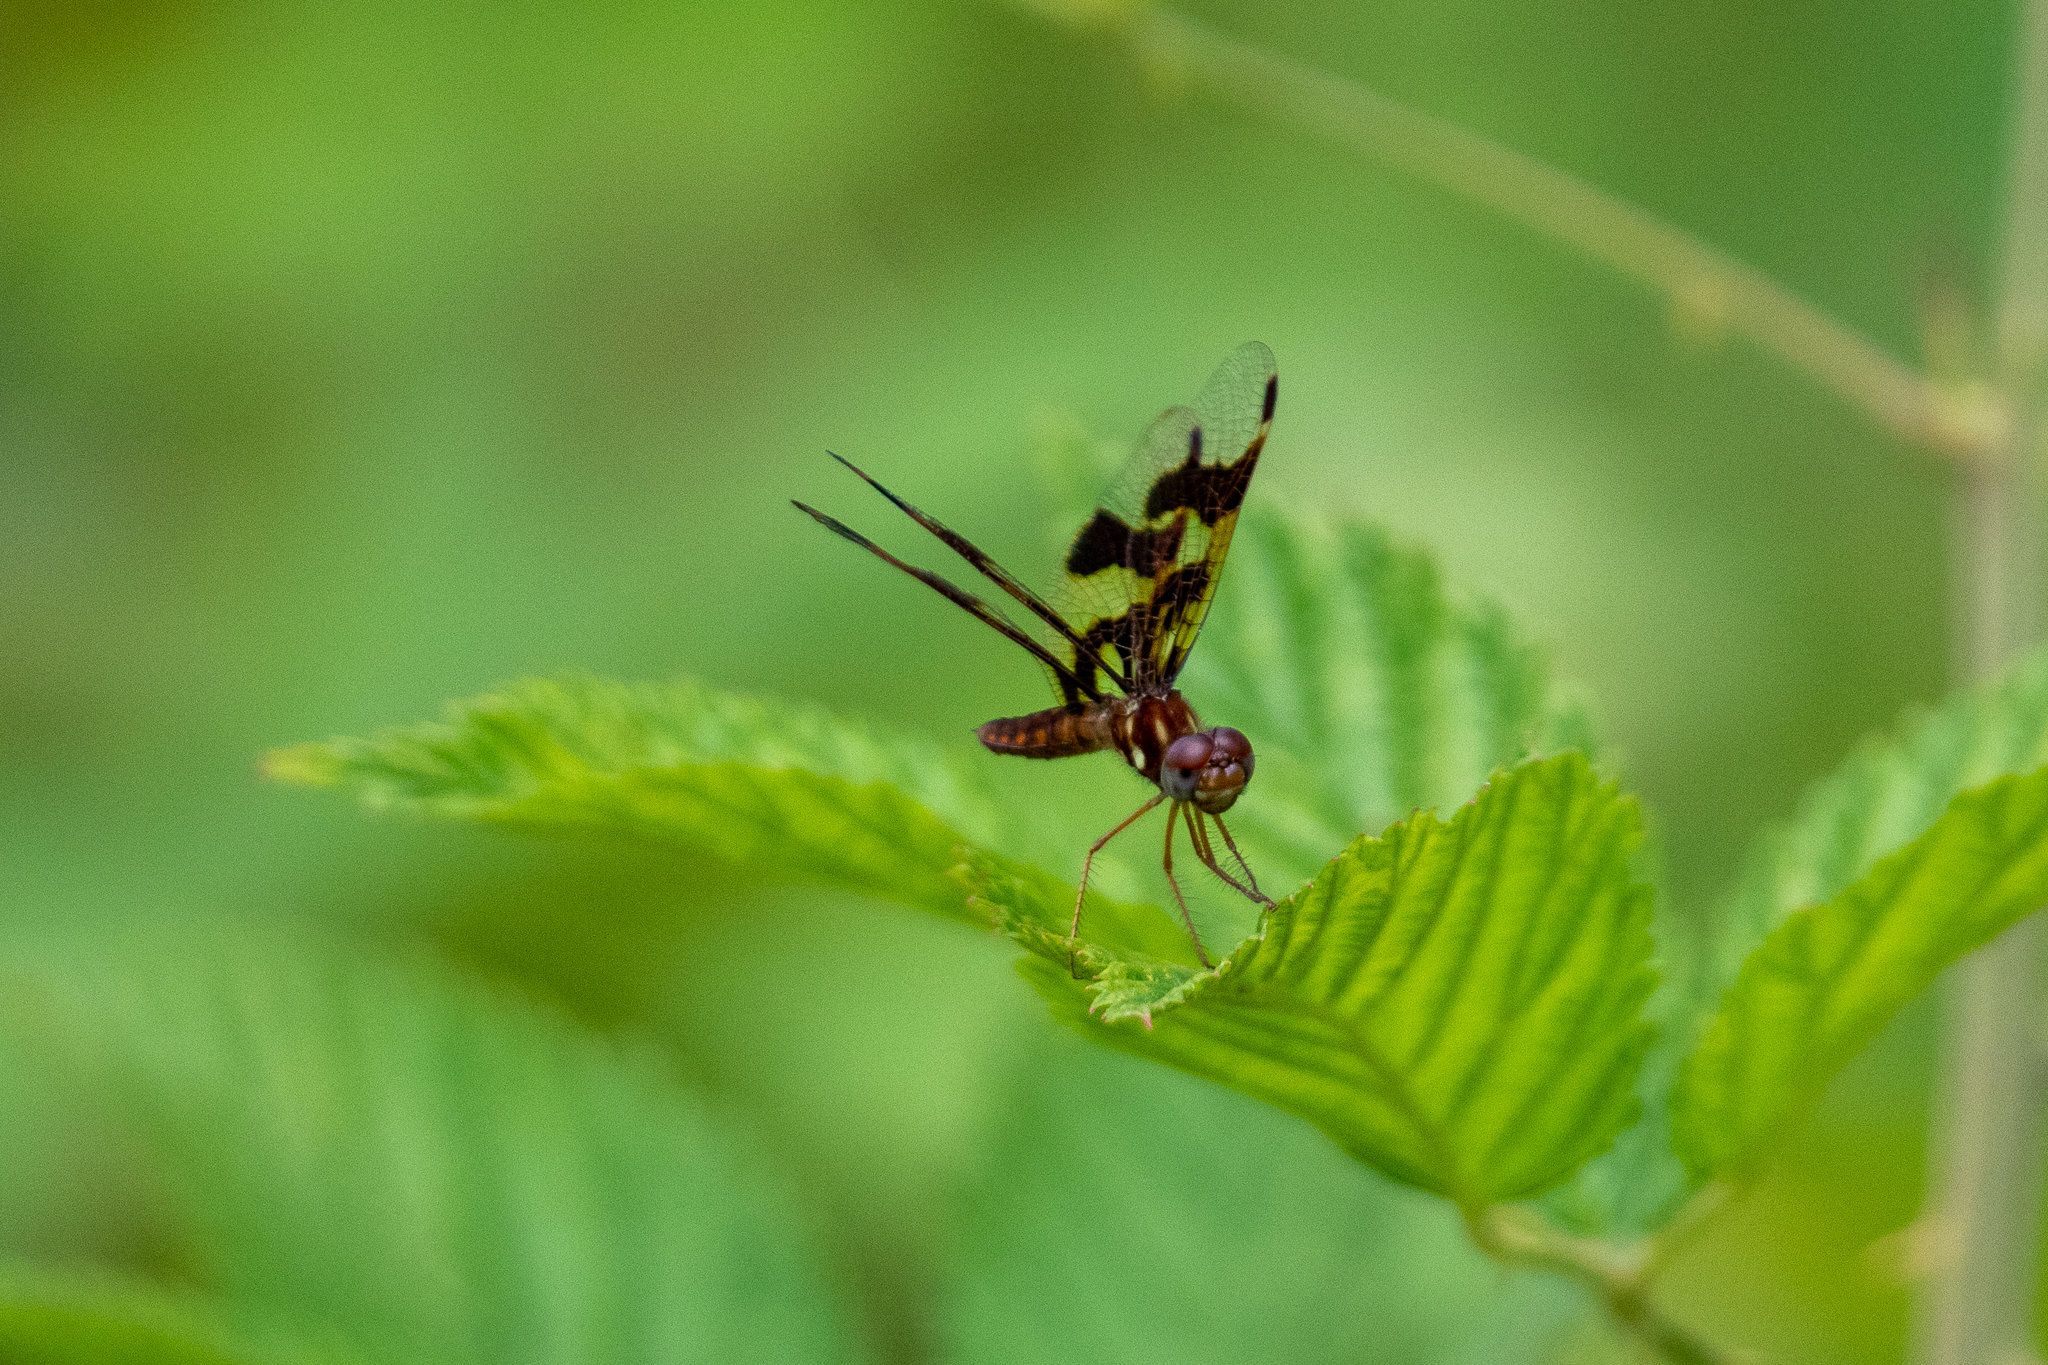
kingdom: Animalia
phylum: Arthropoda
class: Insecta
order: Odonata
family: Libellulidae
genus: Perithemis
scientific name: Perithemis tenera
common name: Eastern amberwing
